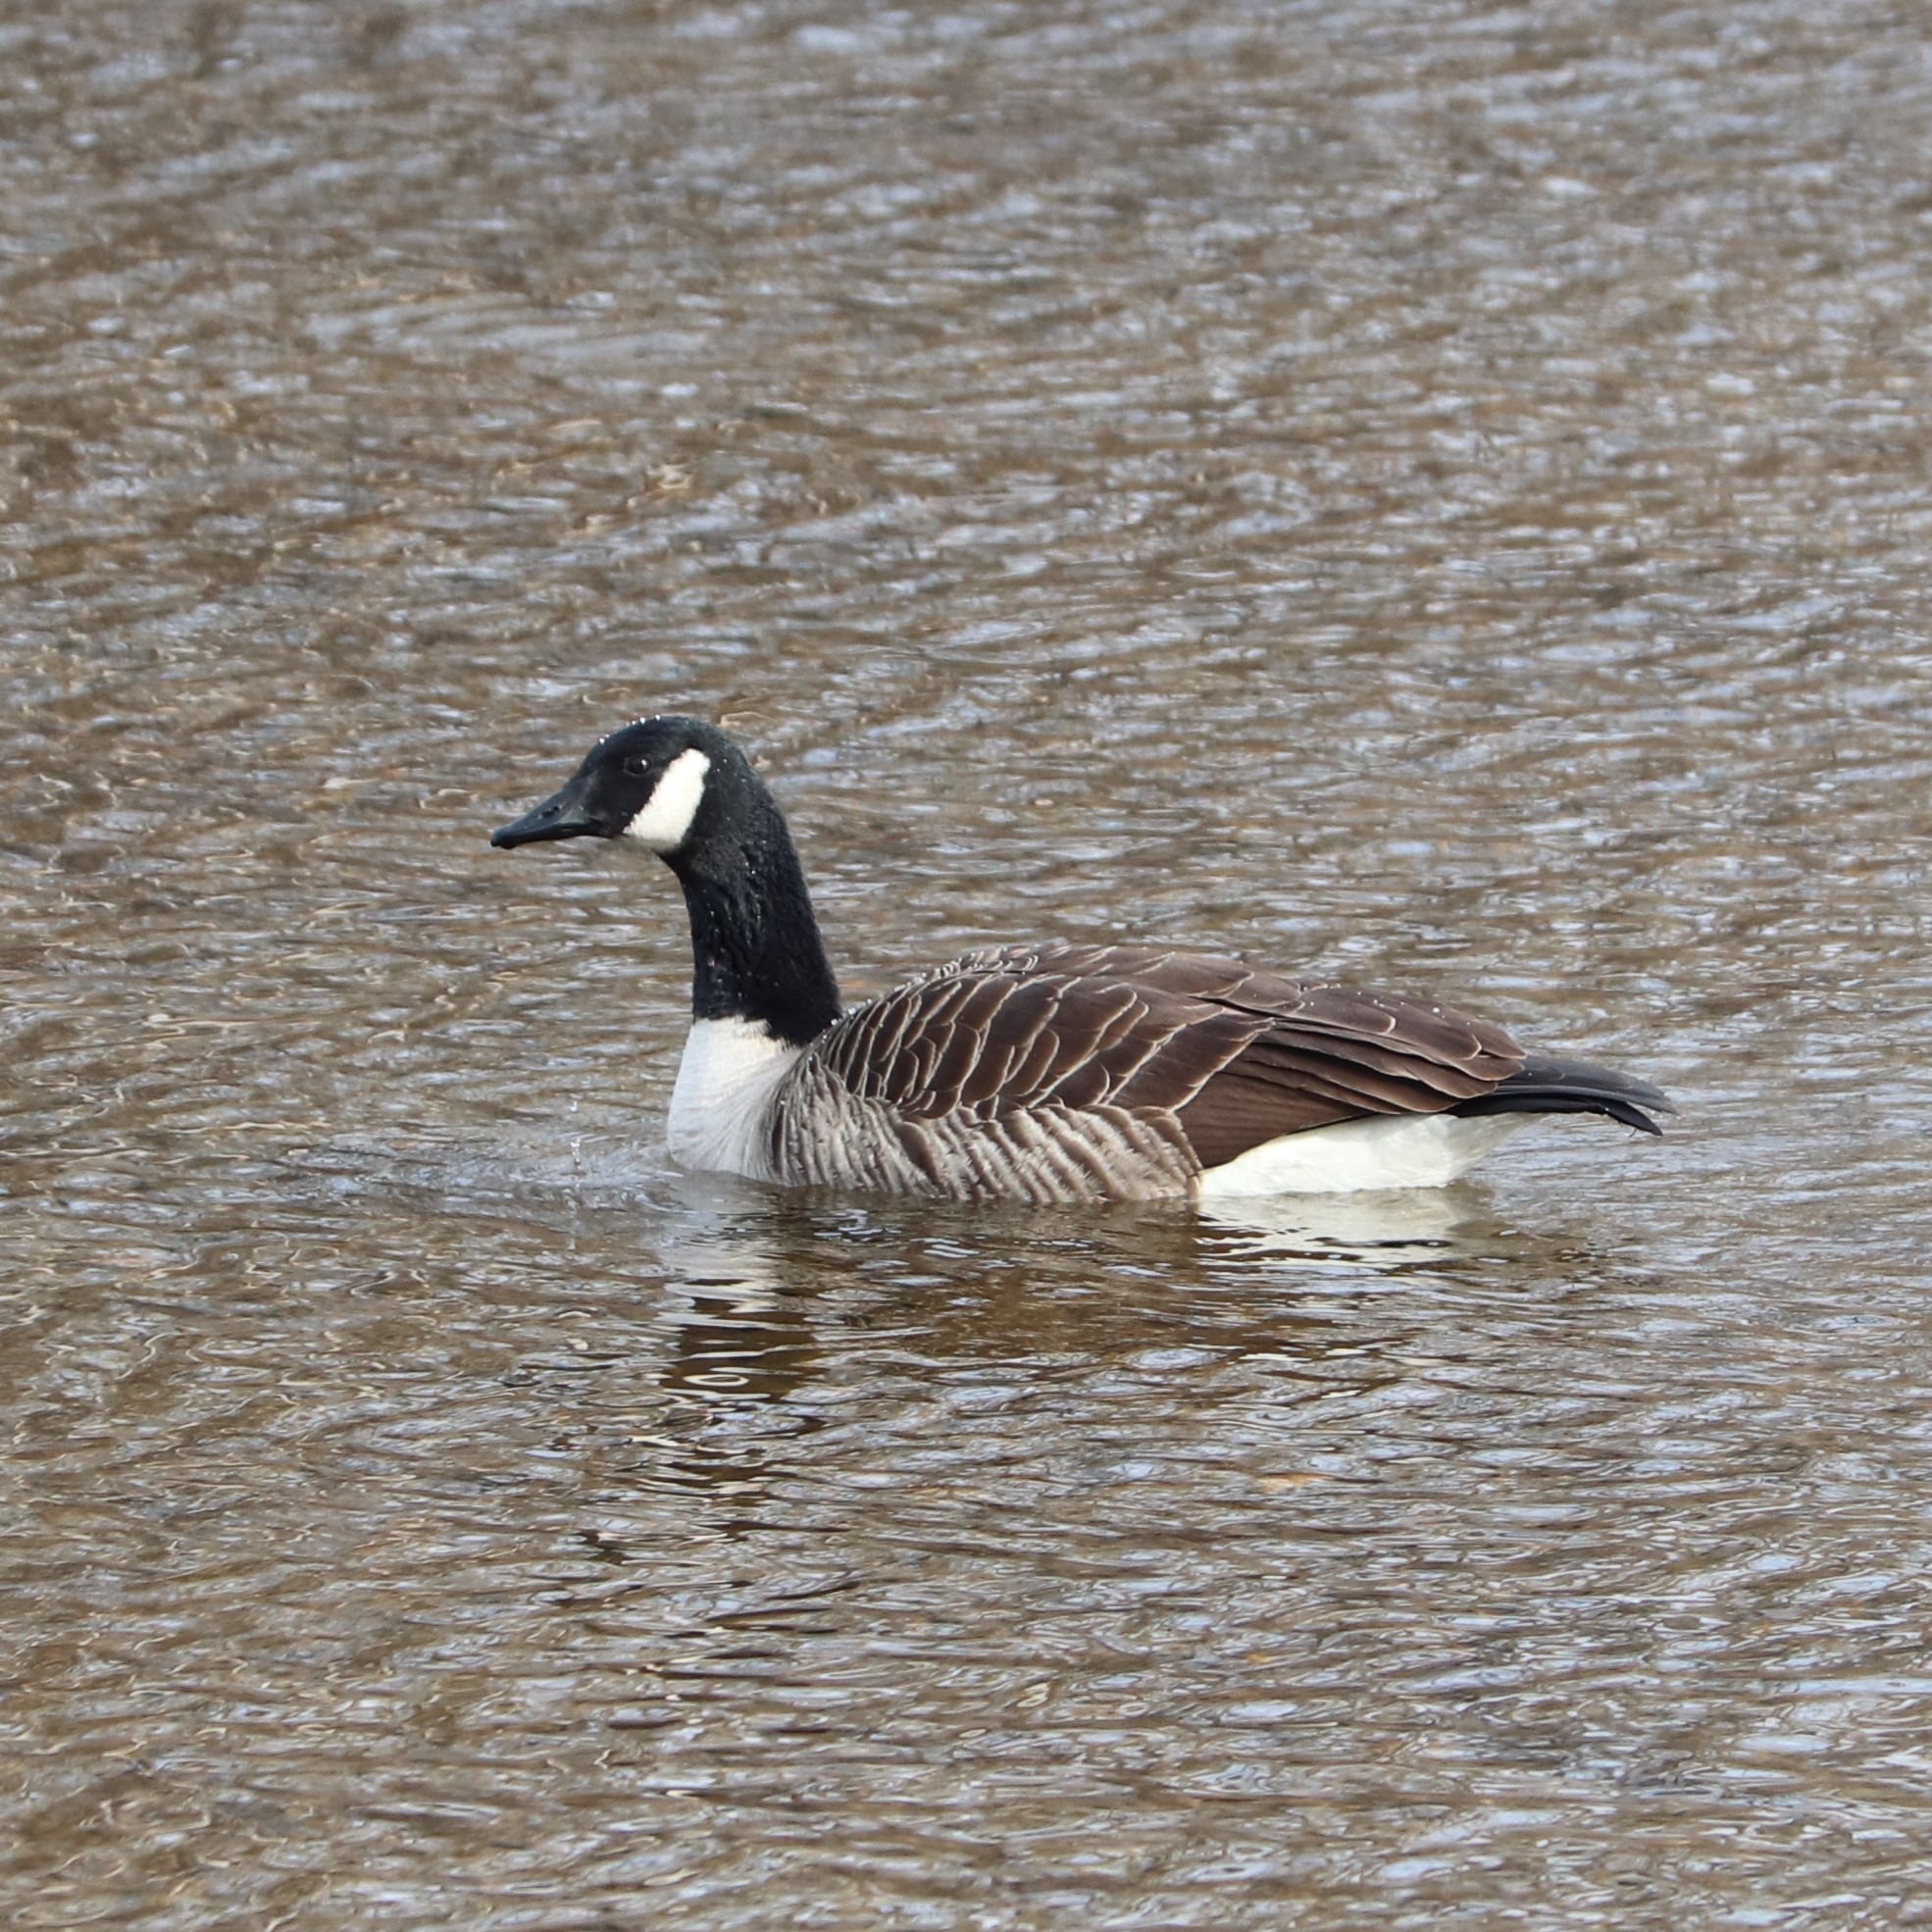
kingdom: Animalia
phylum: Chordata
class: Aves
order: Anseriformes
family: Anatidae
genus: Branta
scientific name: Branta canadensis
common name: Canada goose
